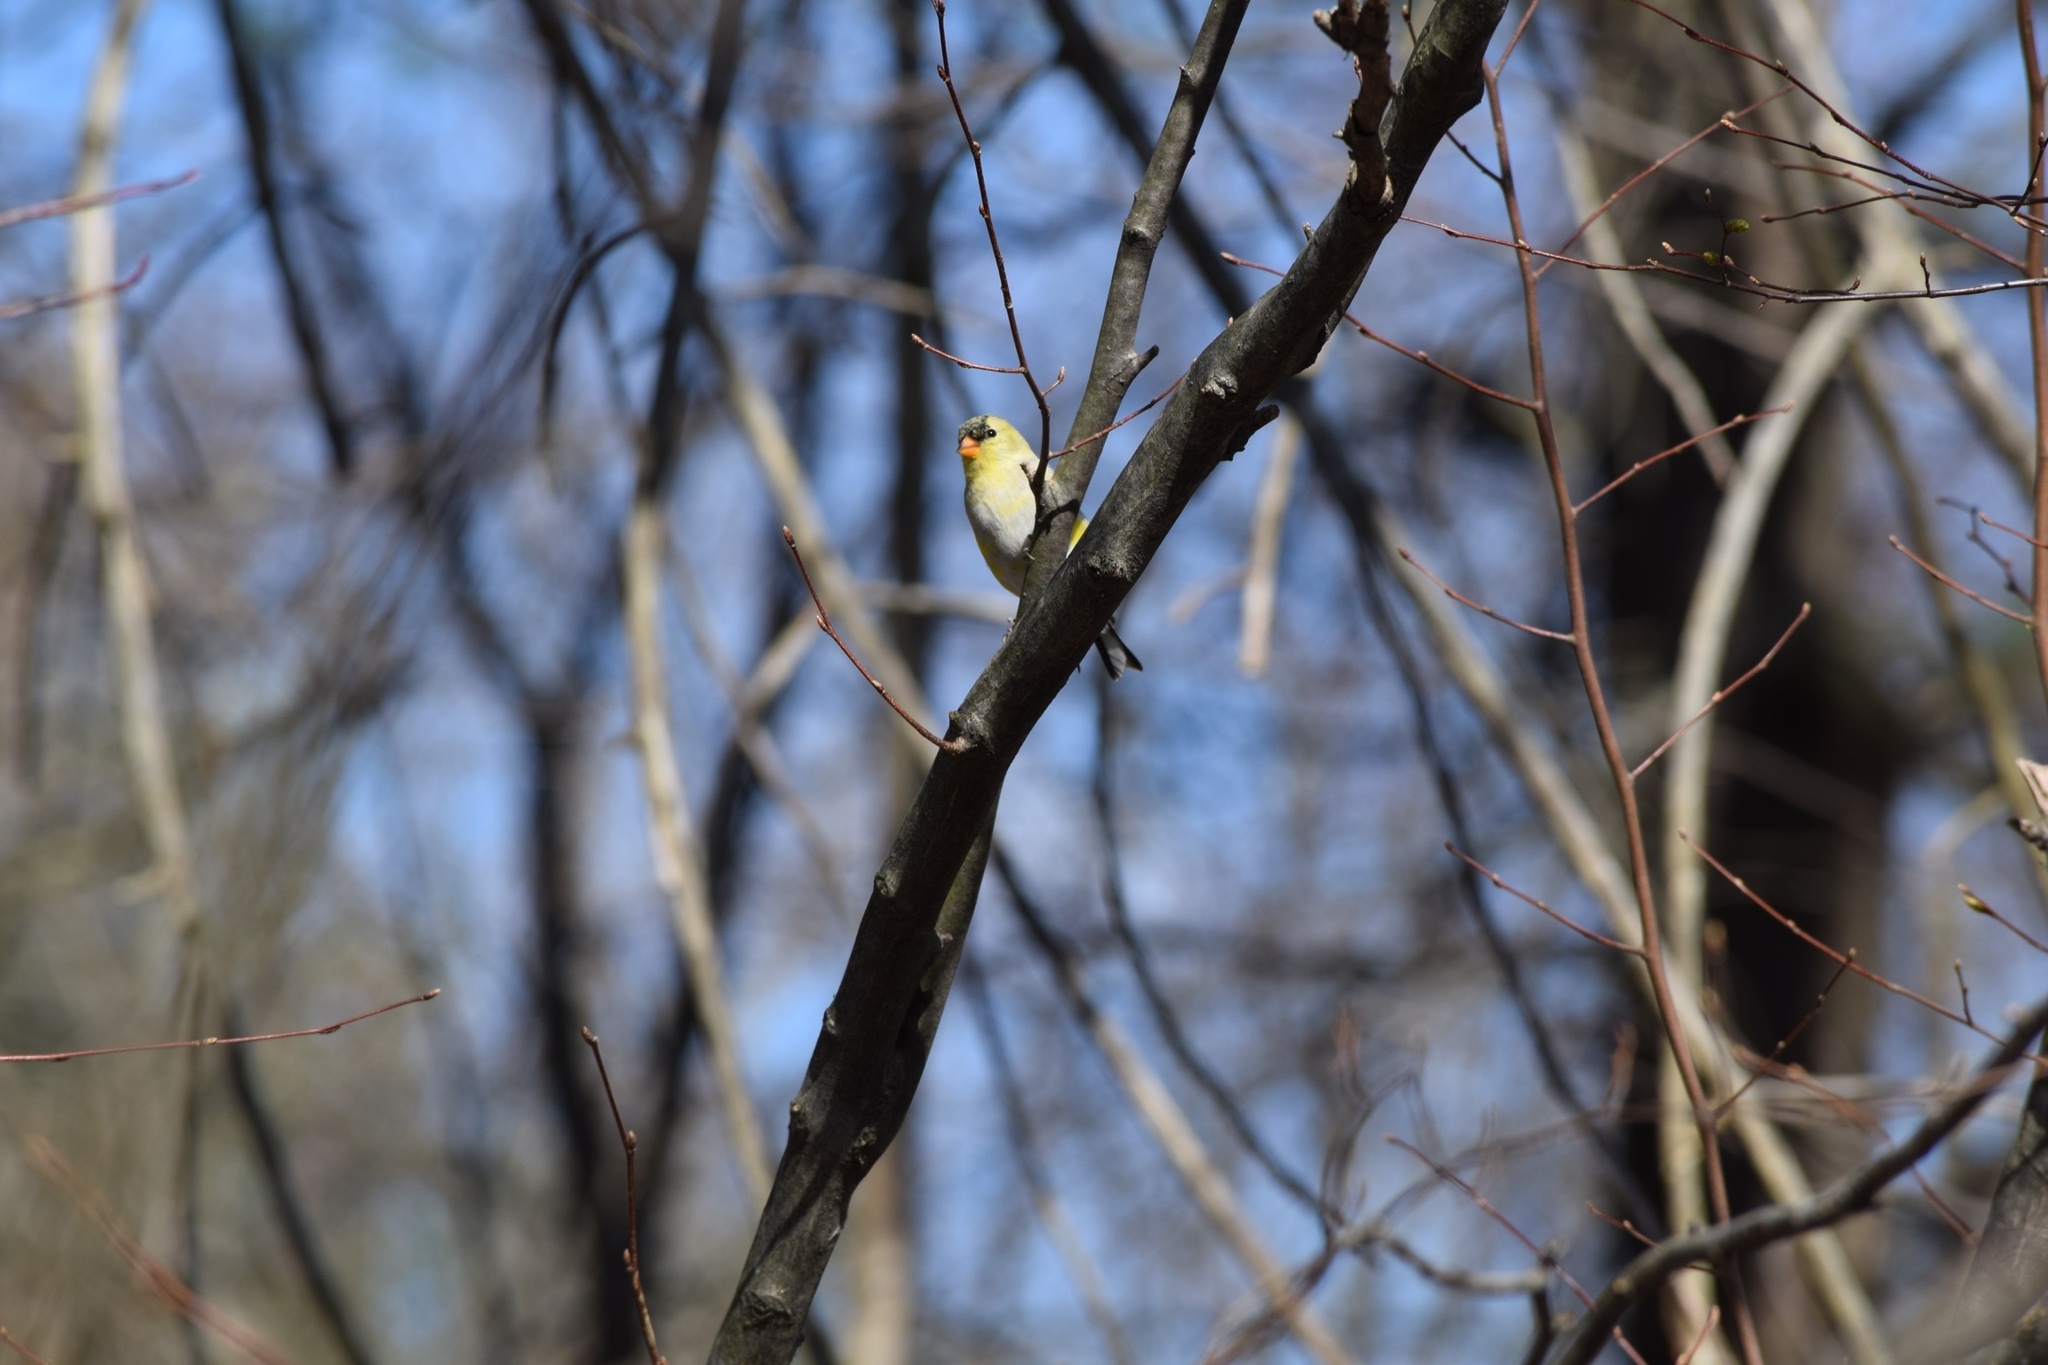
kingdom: Animalia
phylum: Chordata
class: Aves
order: Passeriformes
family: Fringillidae
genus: Spinus
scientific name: Spinus tristis
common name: American goldfinch
